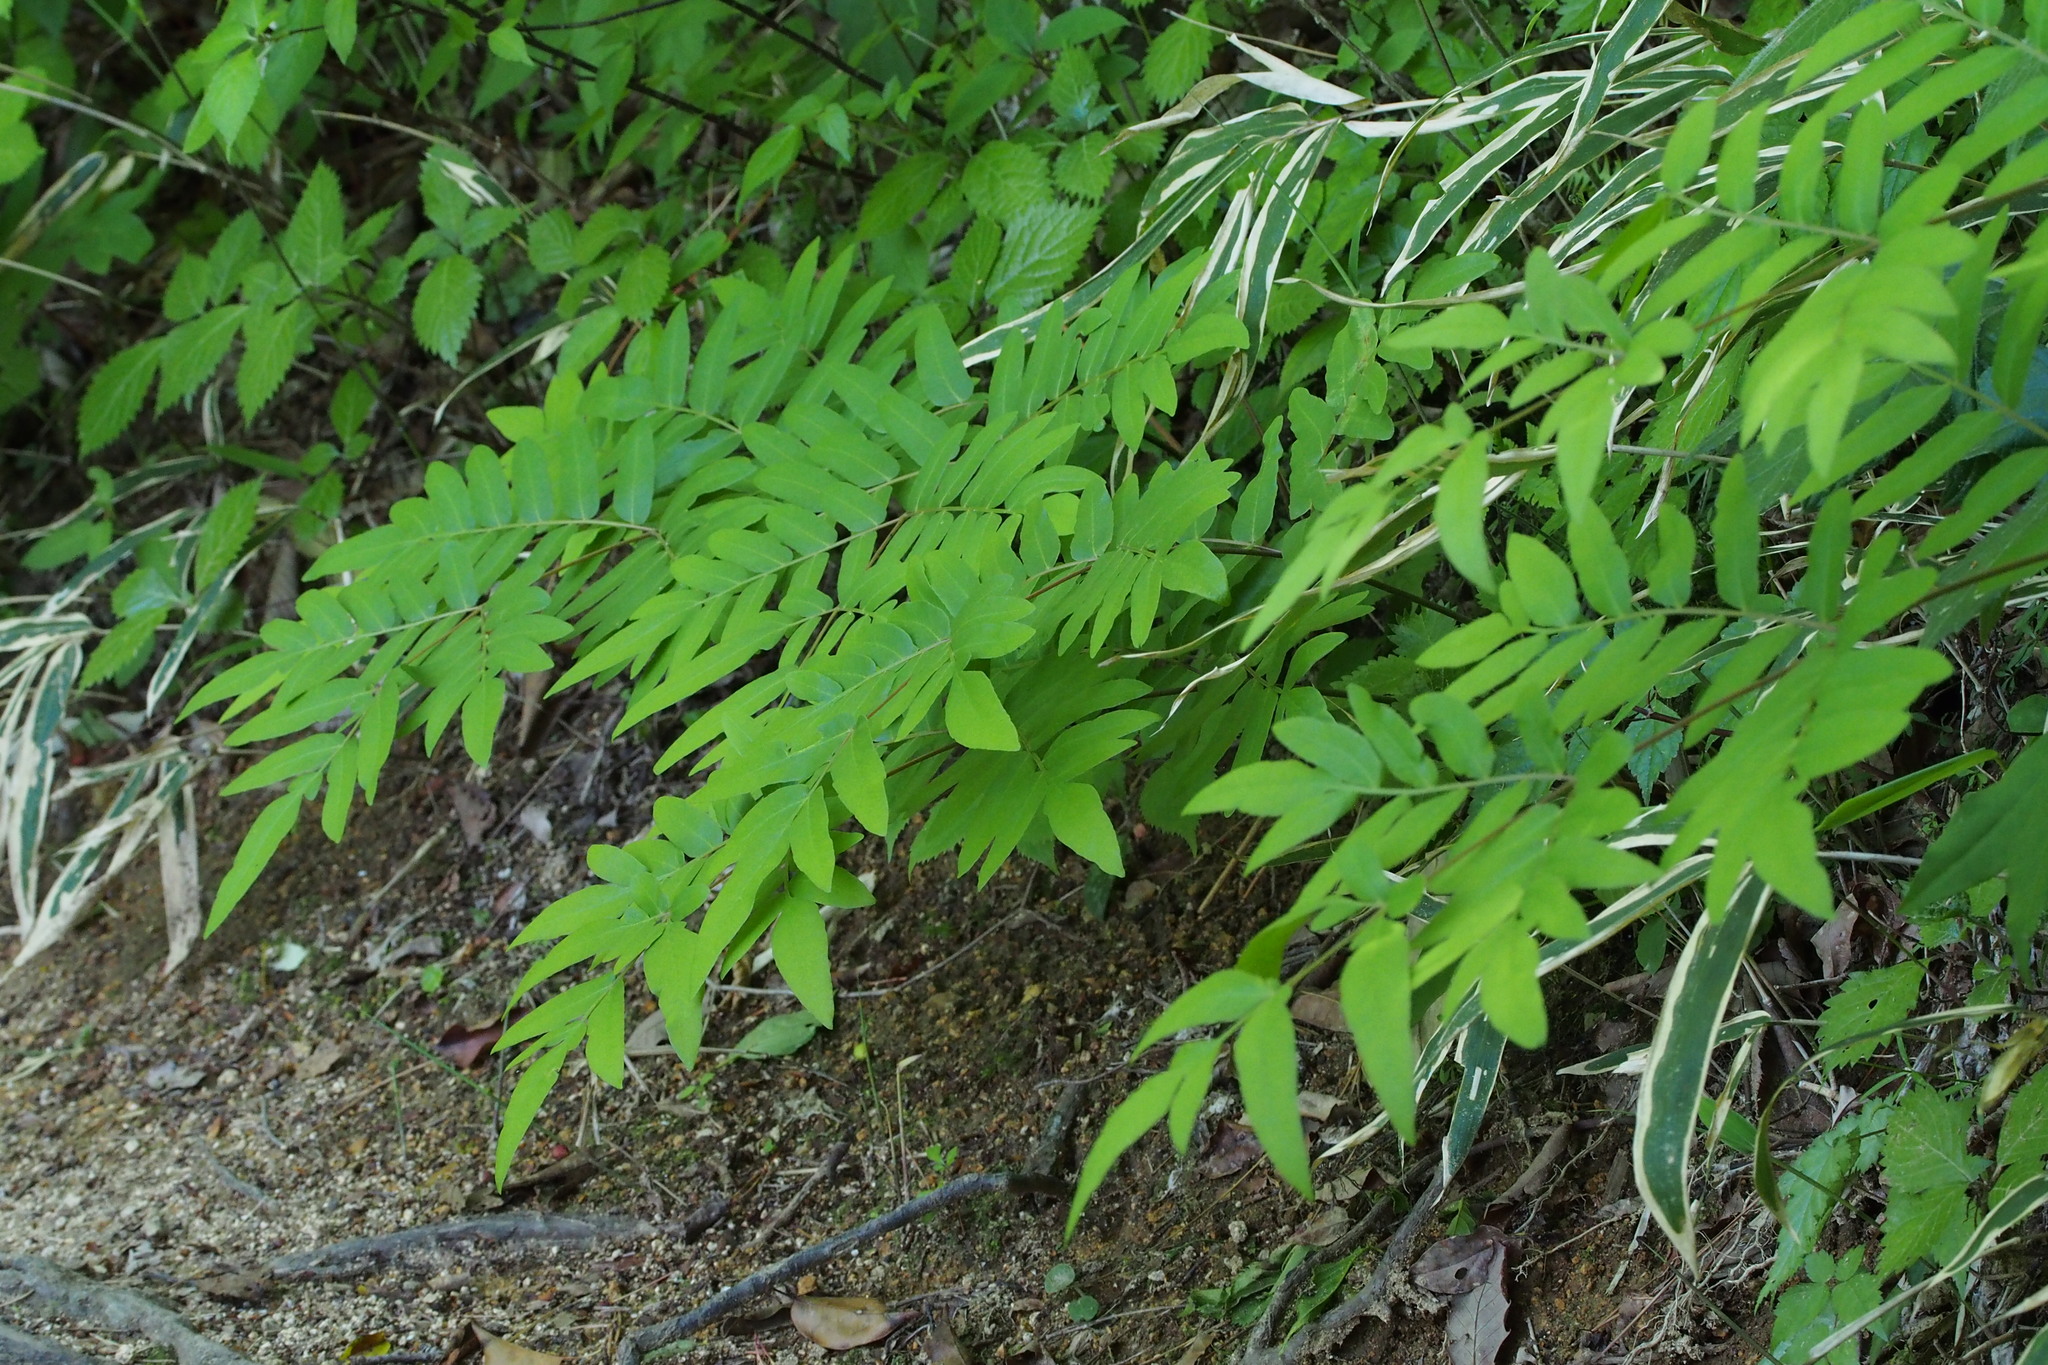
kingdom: Plantae
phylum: Tracheophyta
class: Polypodiopsida
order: Osmundales
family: Osmundaceae
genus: Osmunda
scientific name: Osmunda japonica
